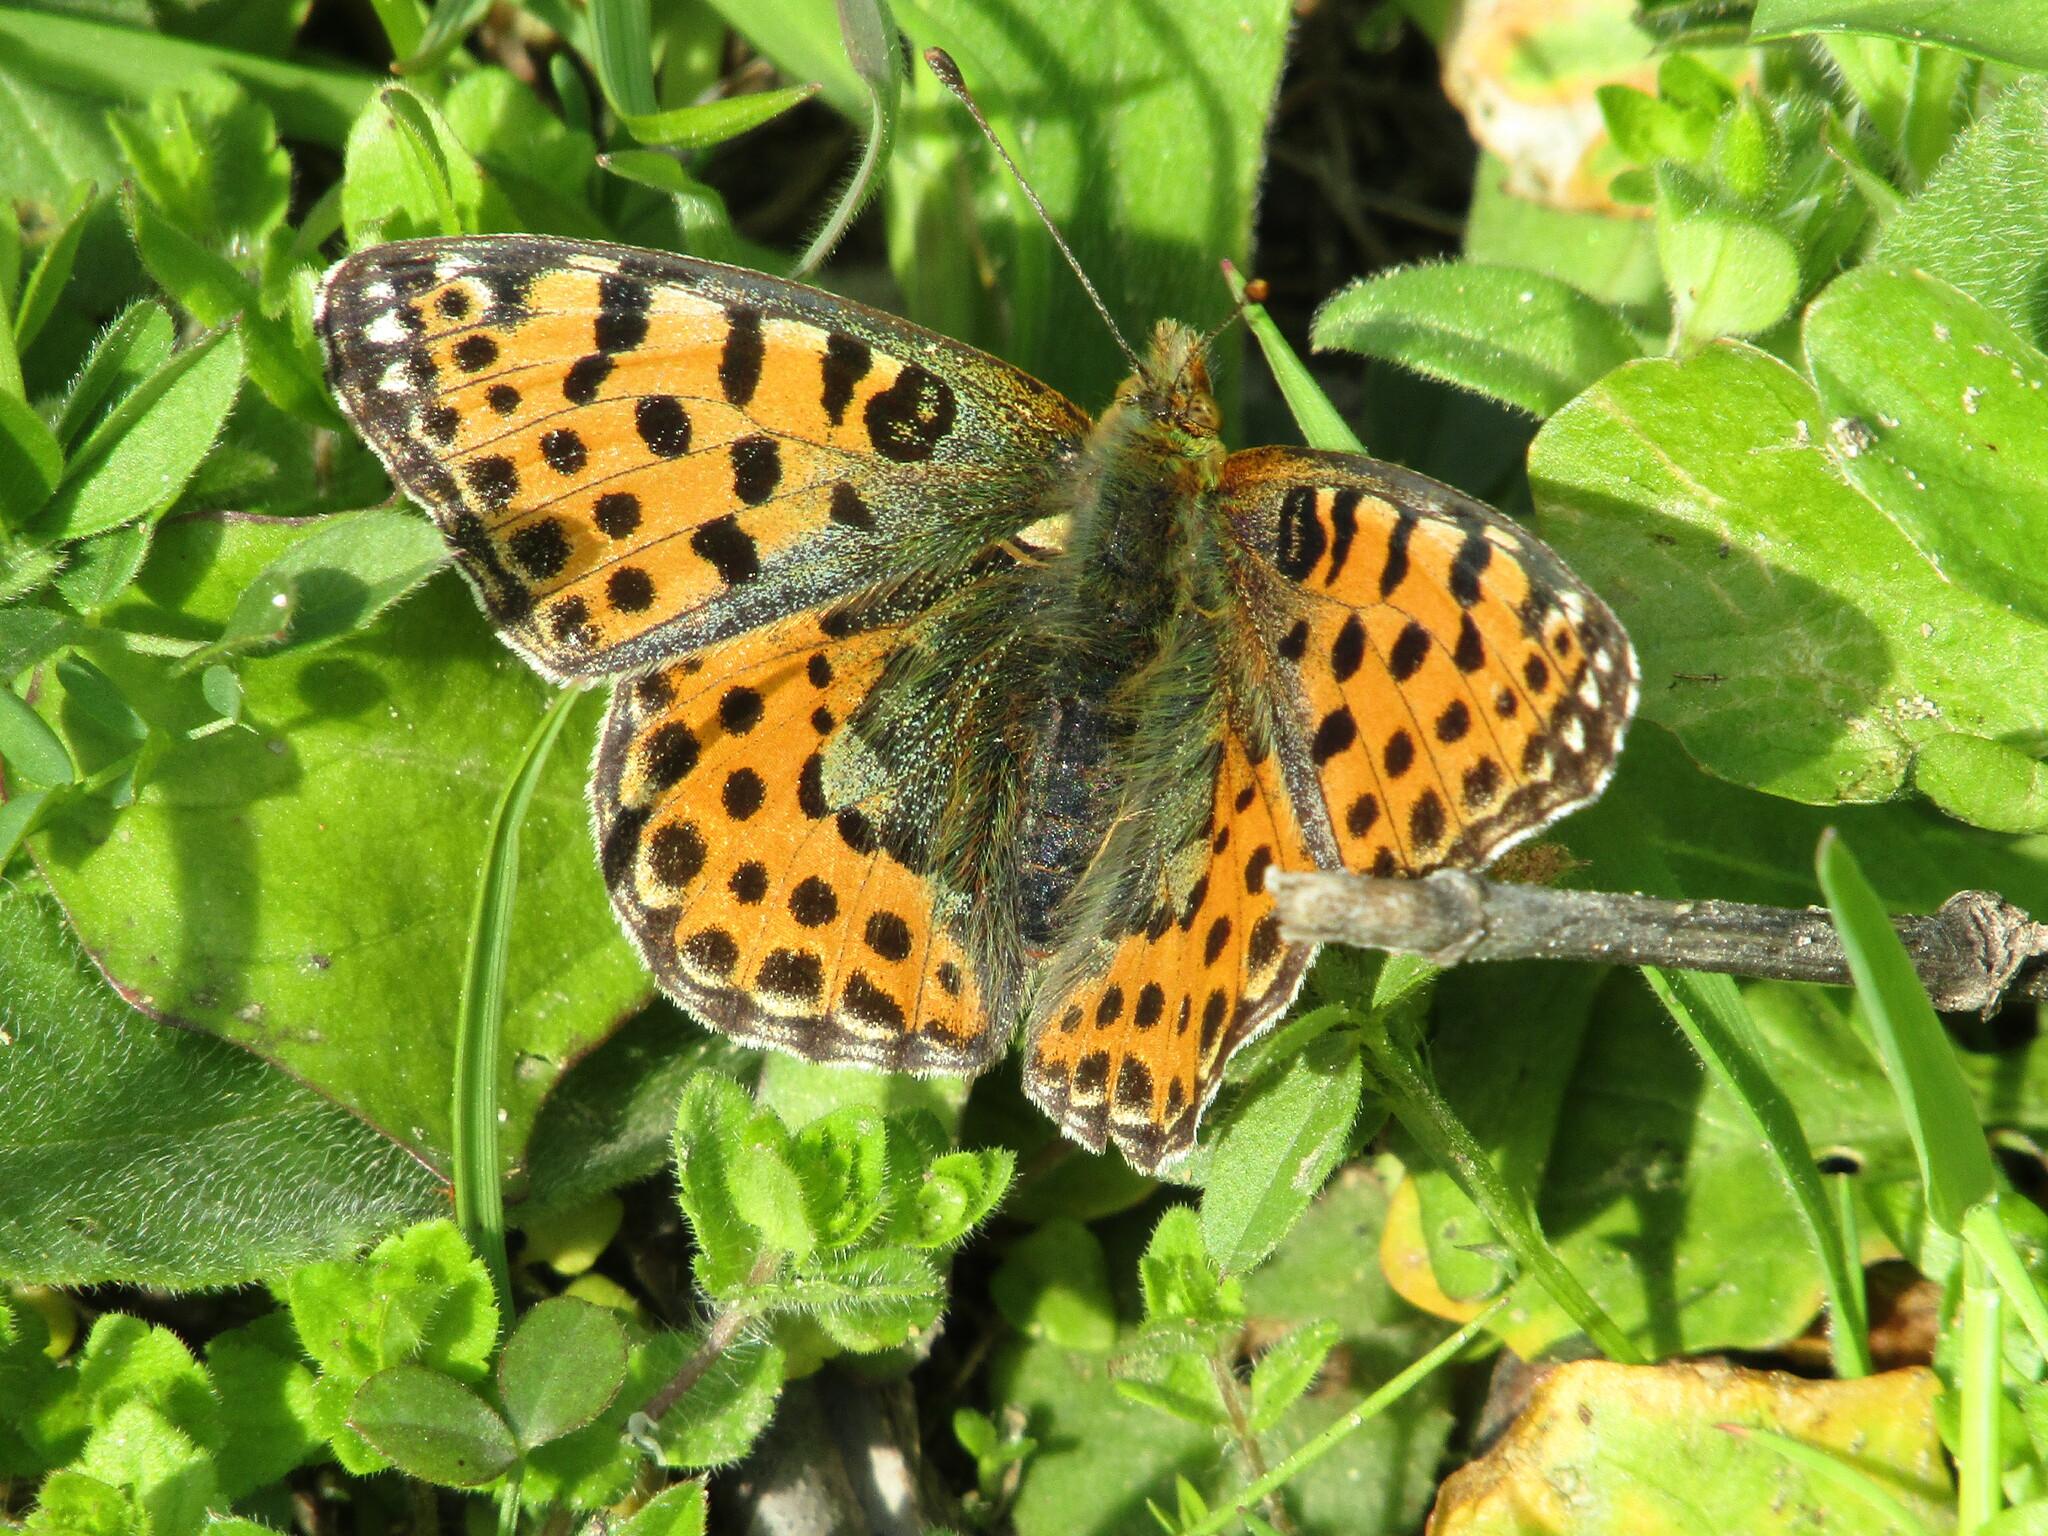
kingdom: Animalia
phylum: Arthropoda
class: Insecta
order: Lepidoptera
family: Nymphalidae
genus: Issoria
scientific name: Issoria lathonia
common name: Queen of spain fritillary
